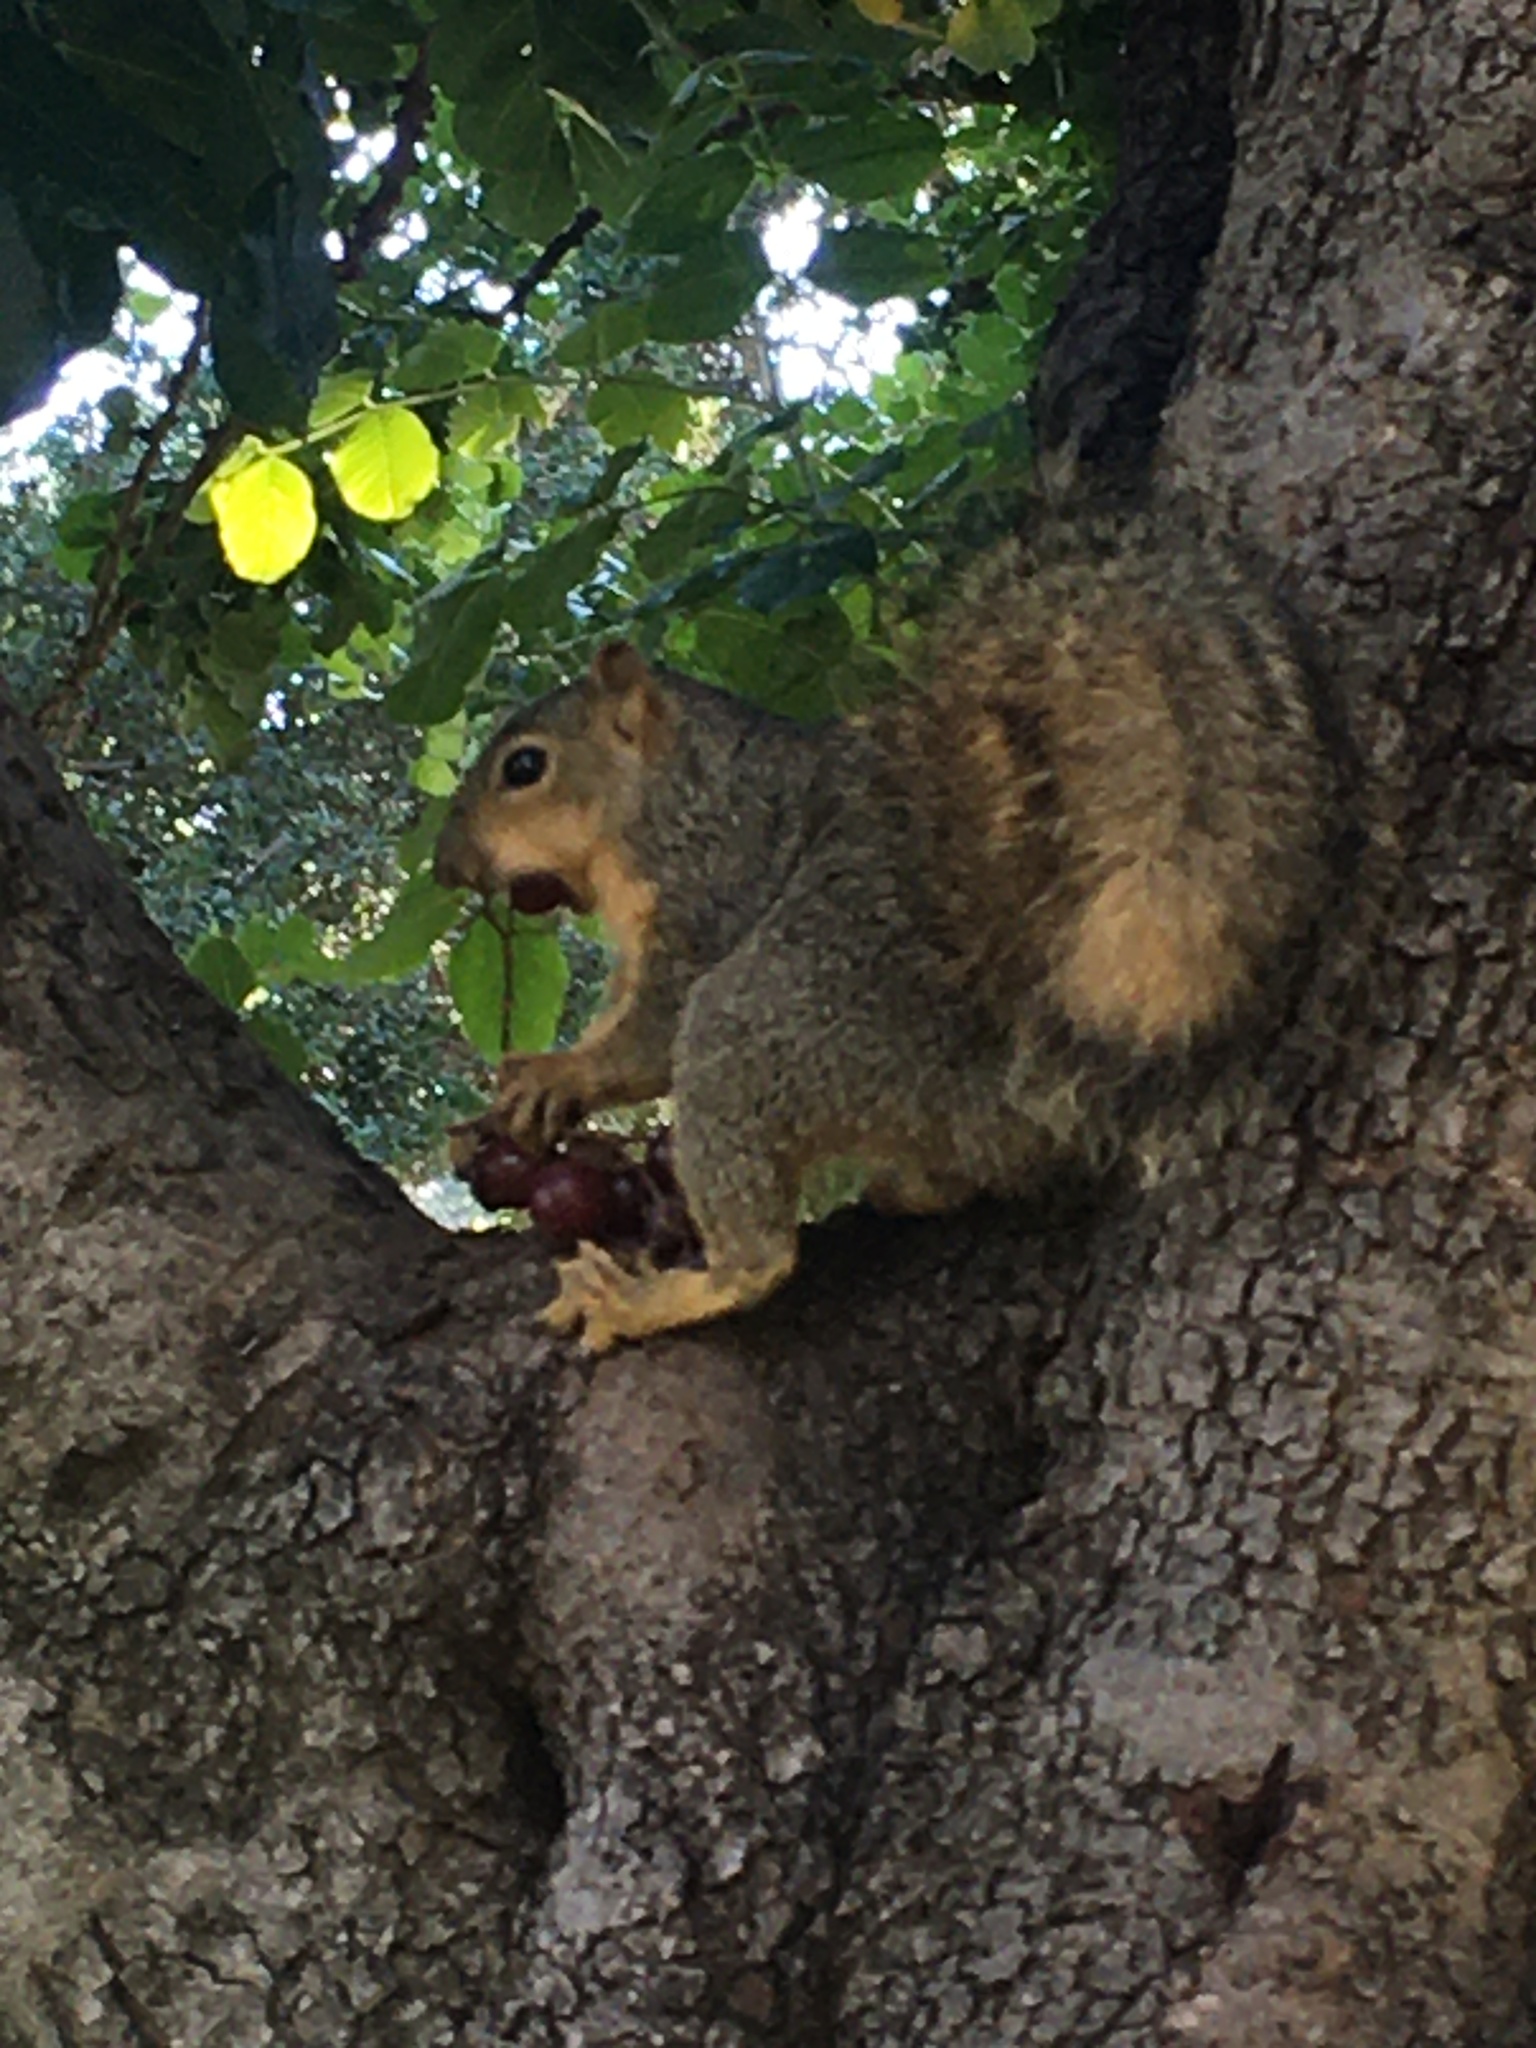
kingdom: Animalia
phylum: Chordata
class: Mammalia
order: Rodentia
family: Sciuridae
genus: Sciurus
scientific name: Sciurus niger
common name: Fox squirrel
